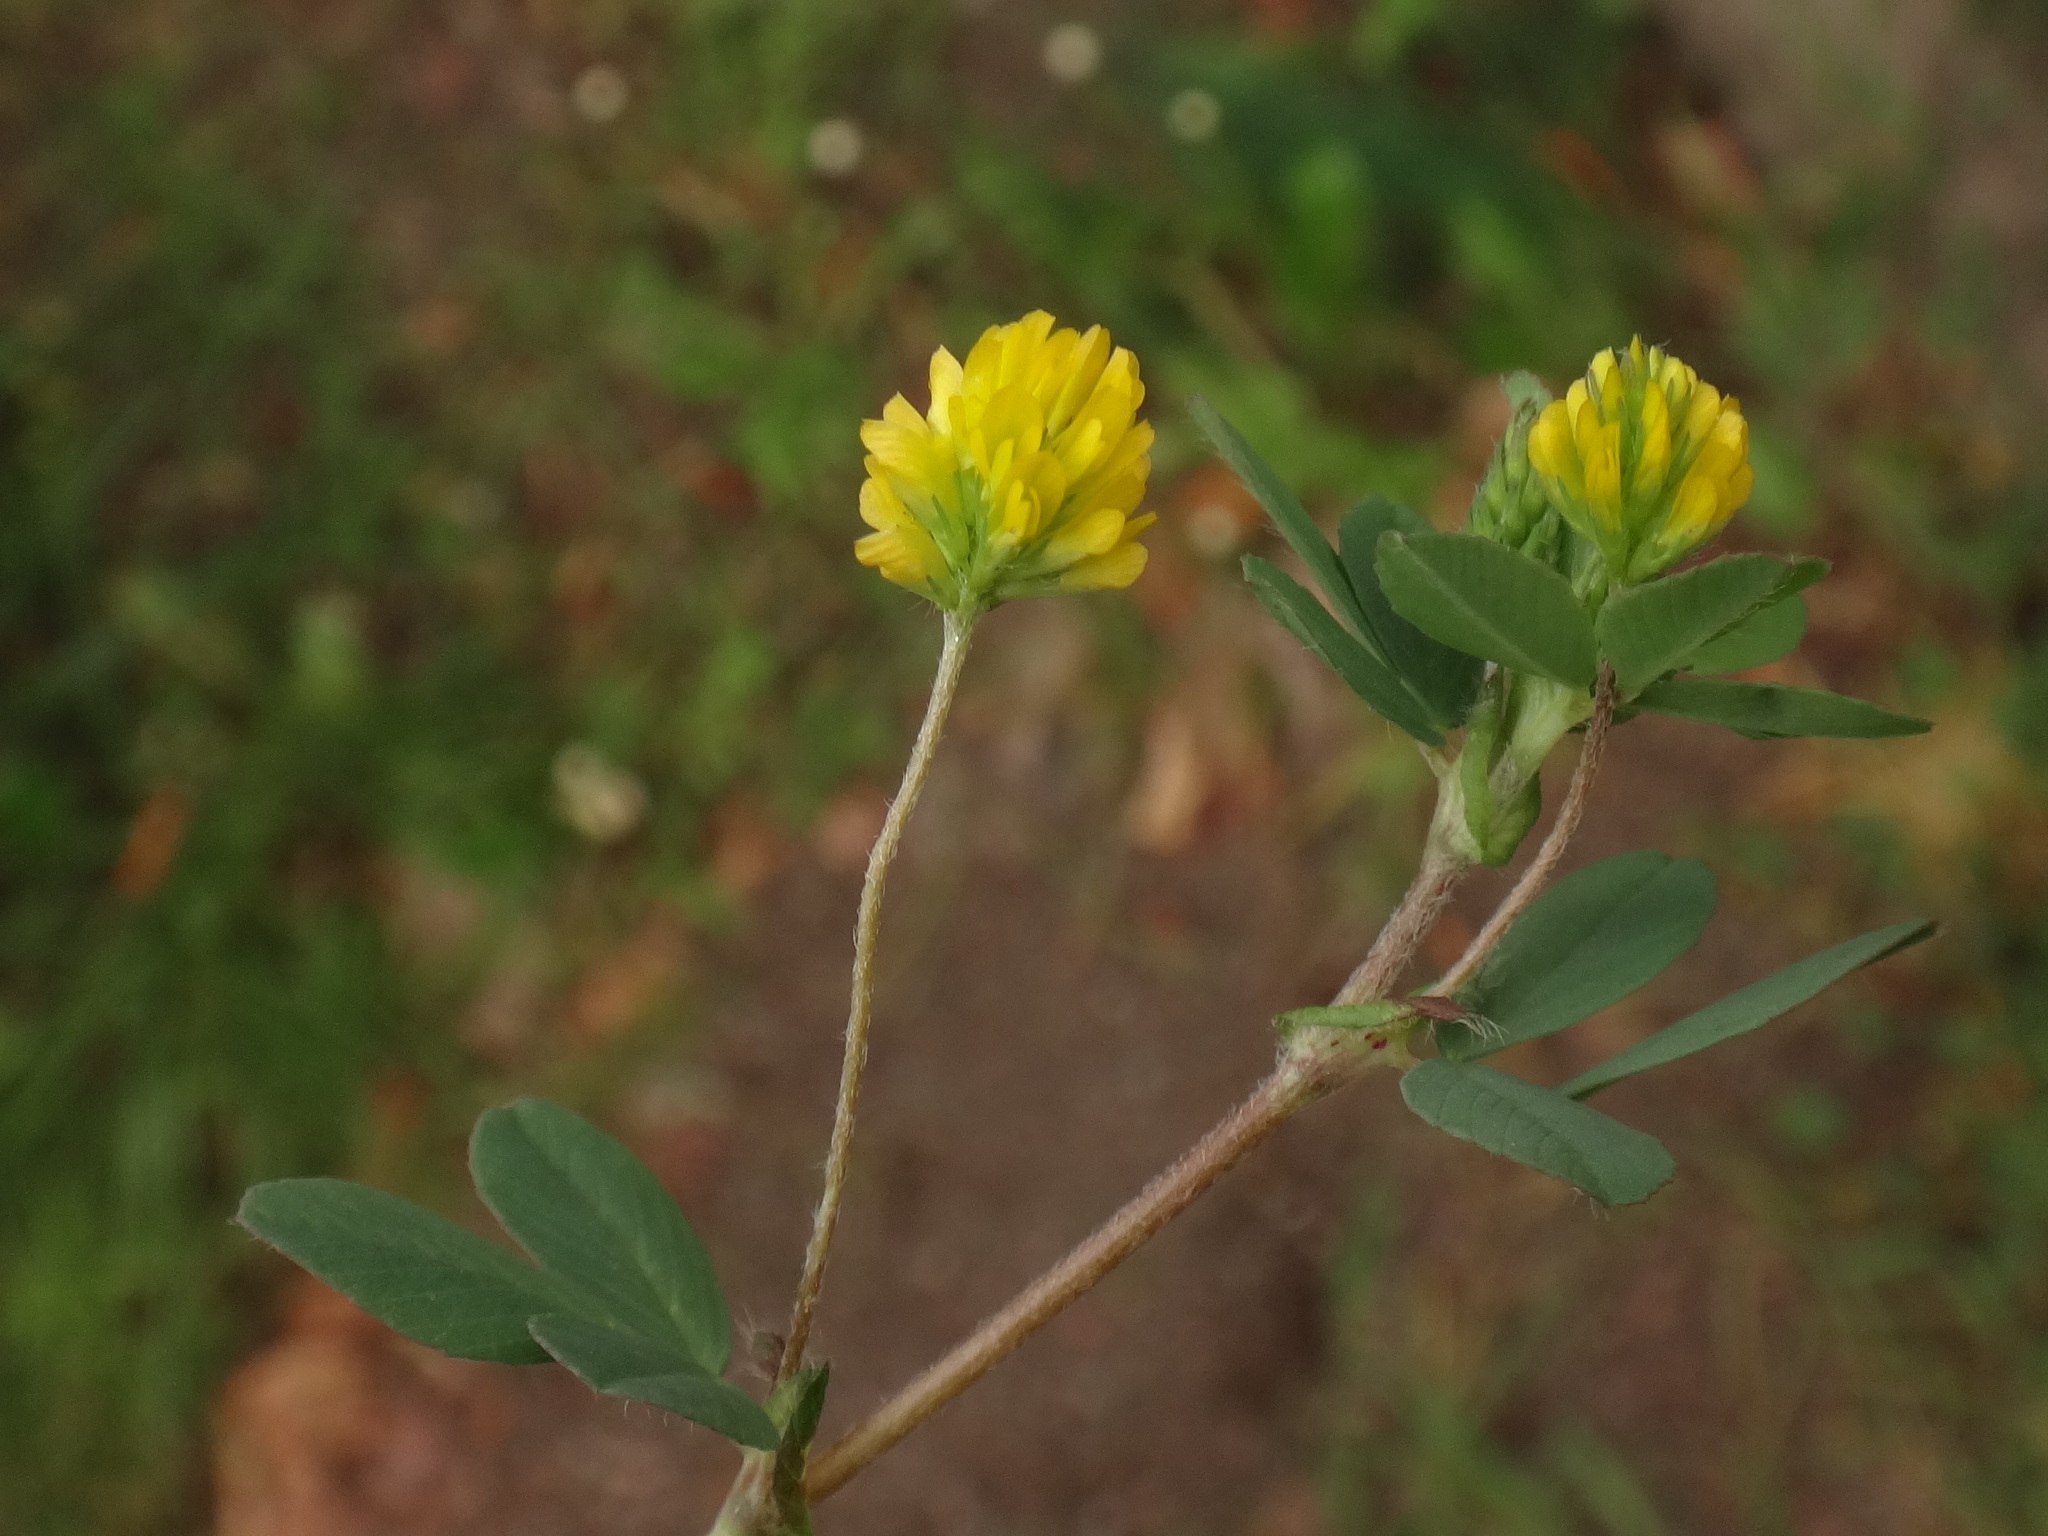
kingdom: Plantae
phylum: Tracheophyta
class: Magnoliopsida
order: Fabales
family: Fabaceae
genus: Trifolium
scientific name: Trifolium dubium
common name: Suckling clover
